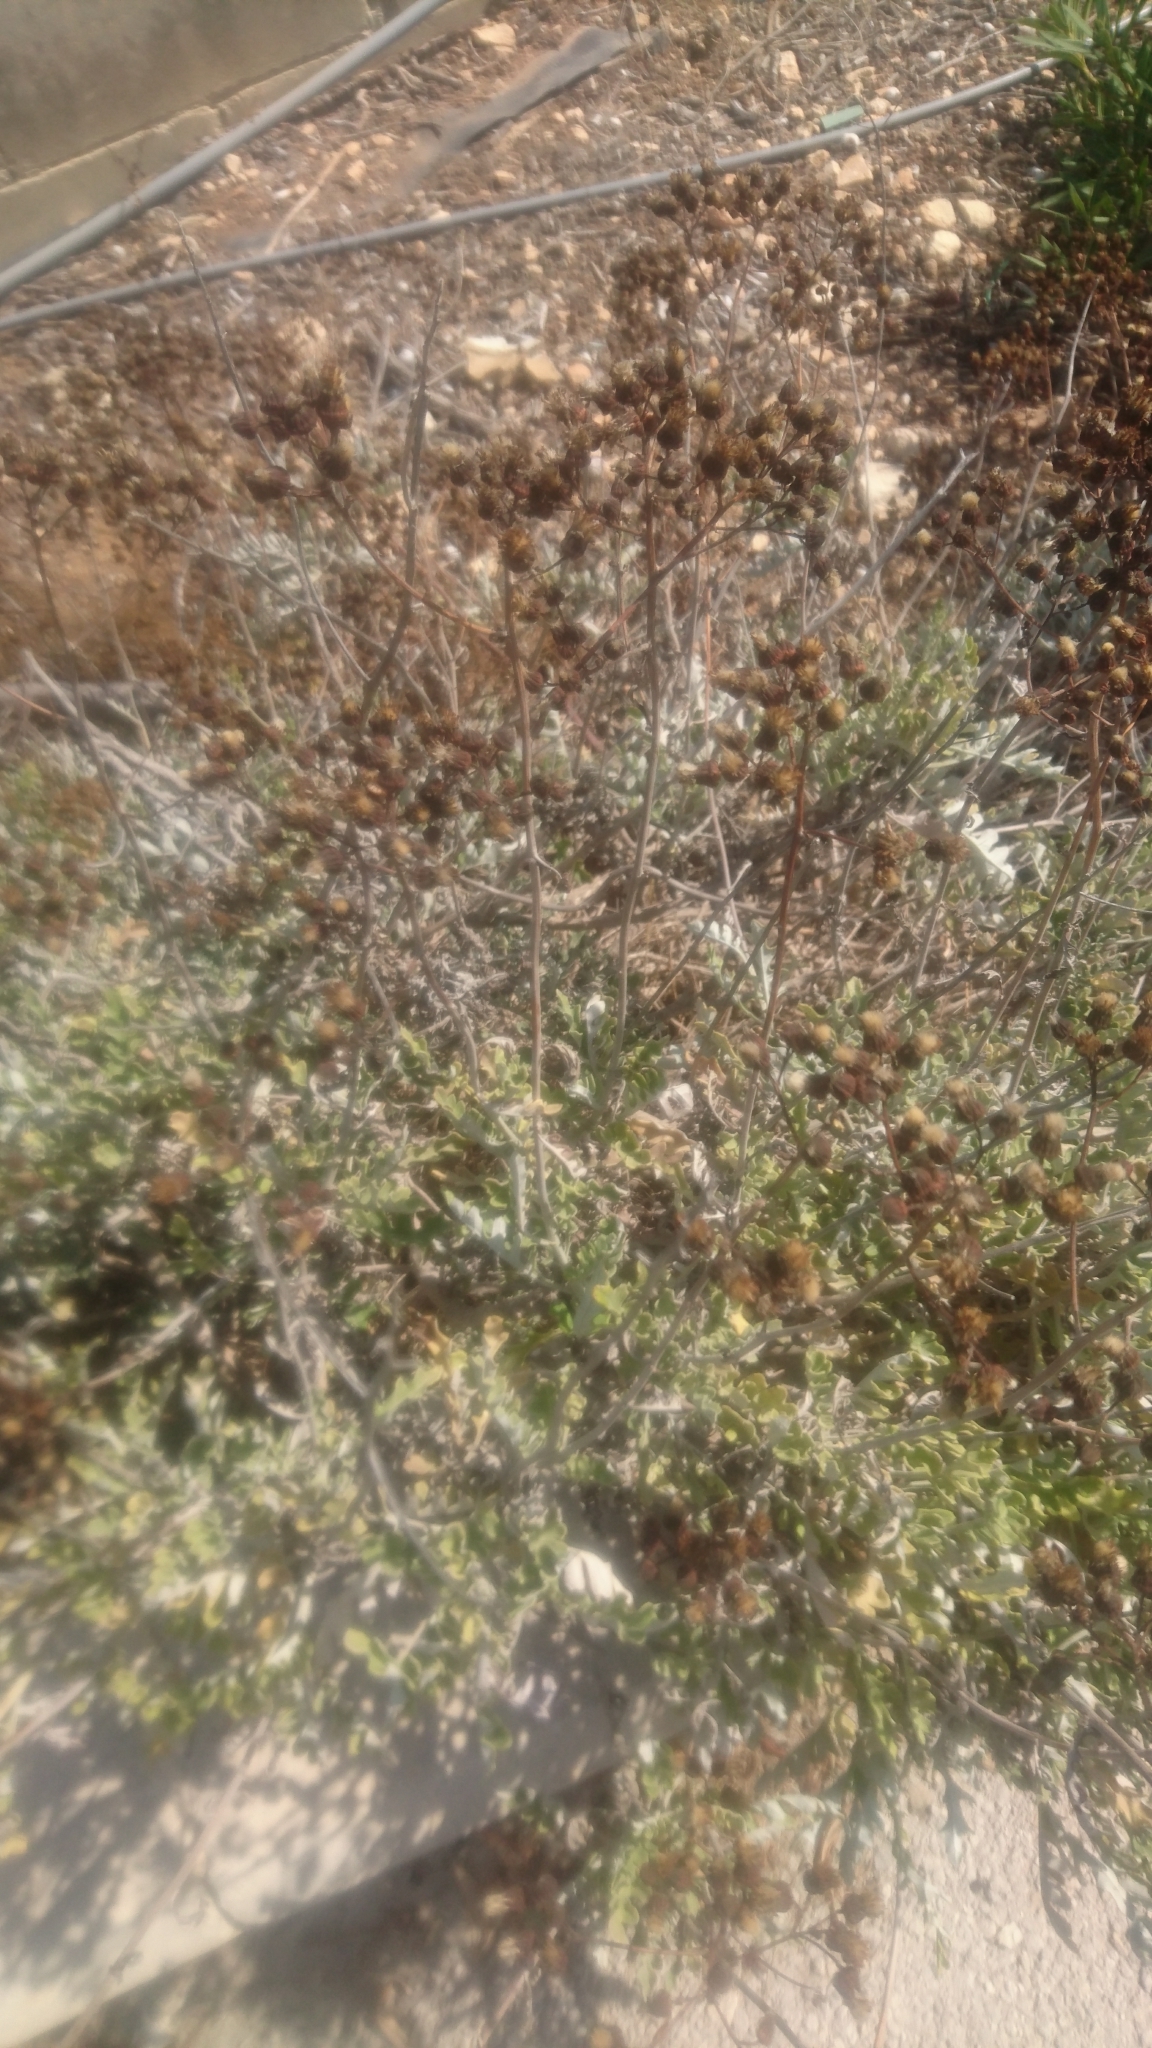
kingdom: Plantae
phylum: Tracheophyta
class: Magnoliopsida
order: Asterales
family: Asteraceae
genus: Jacobaea
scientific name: Jacobaea maritima
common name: Silver ragwort
